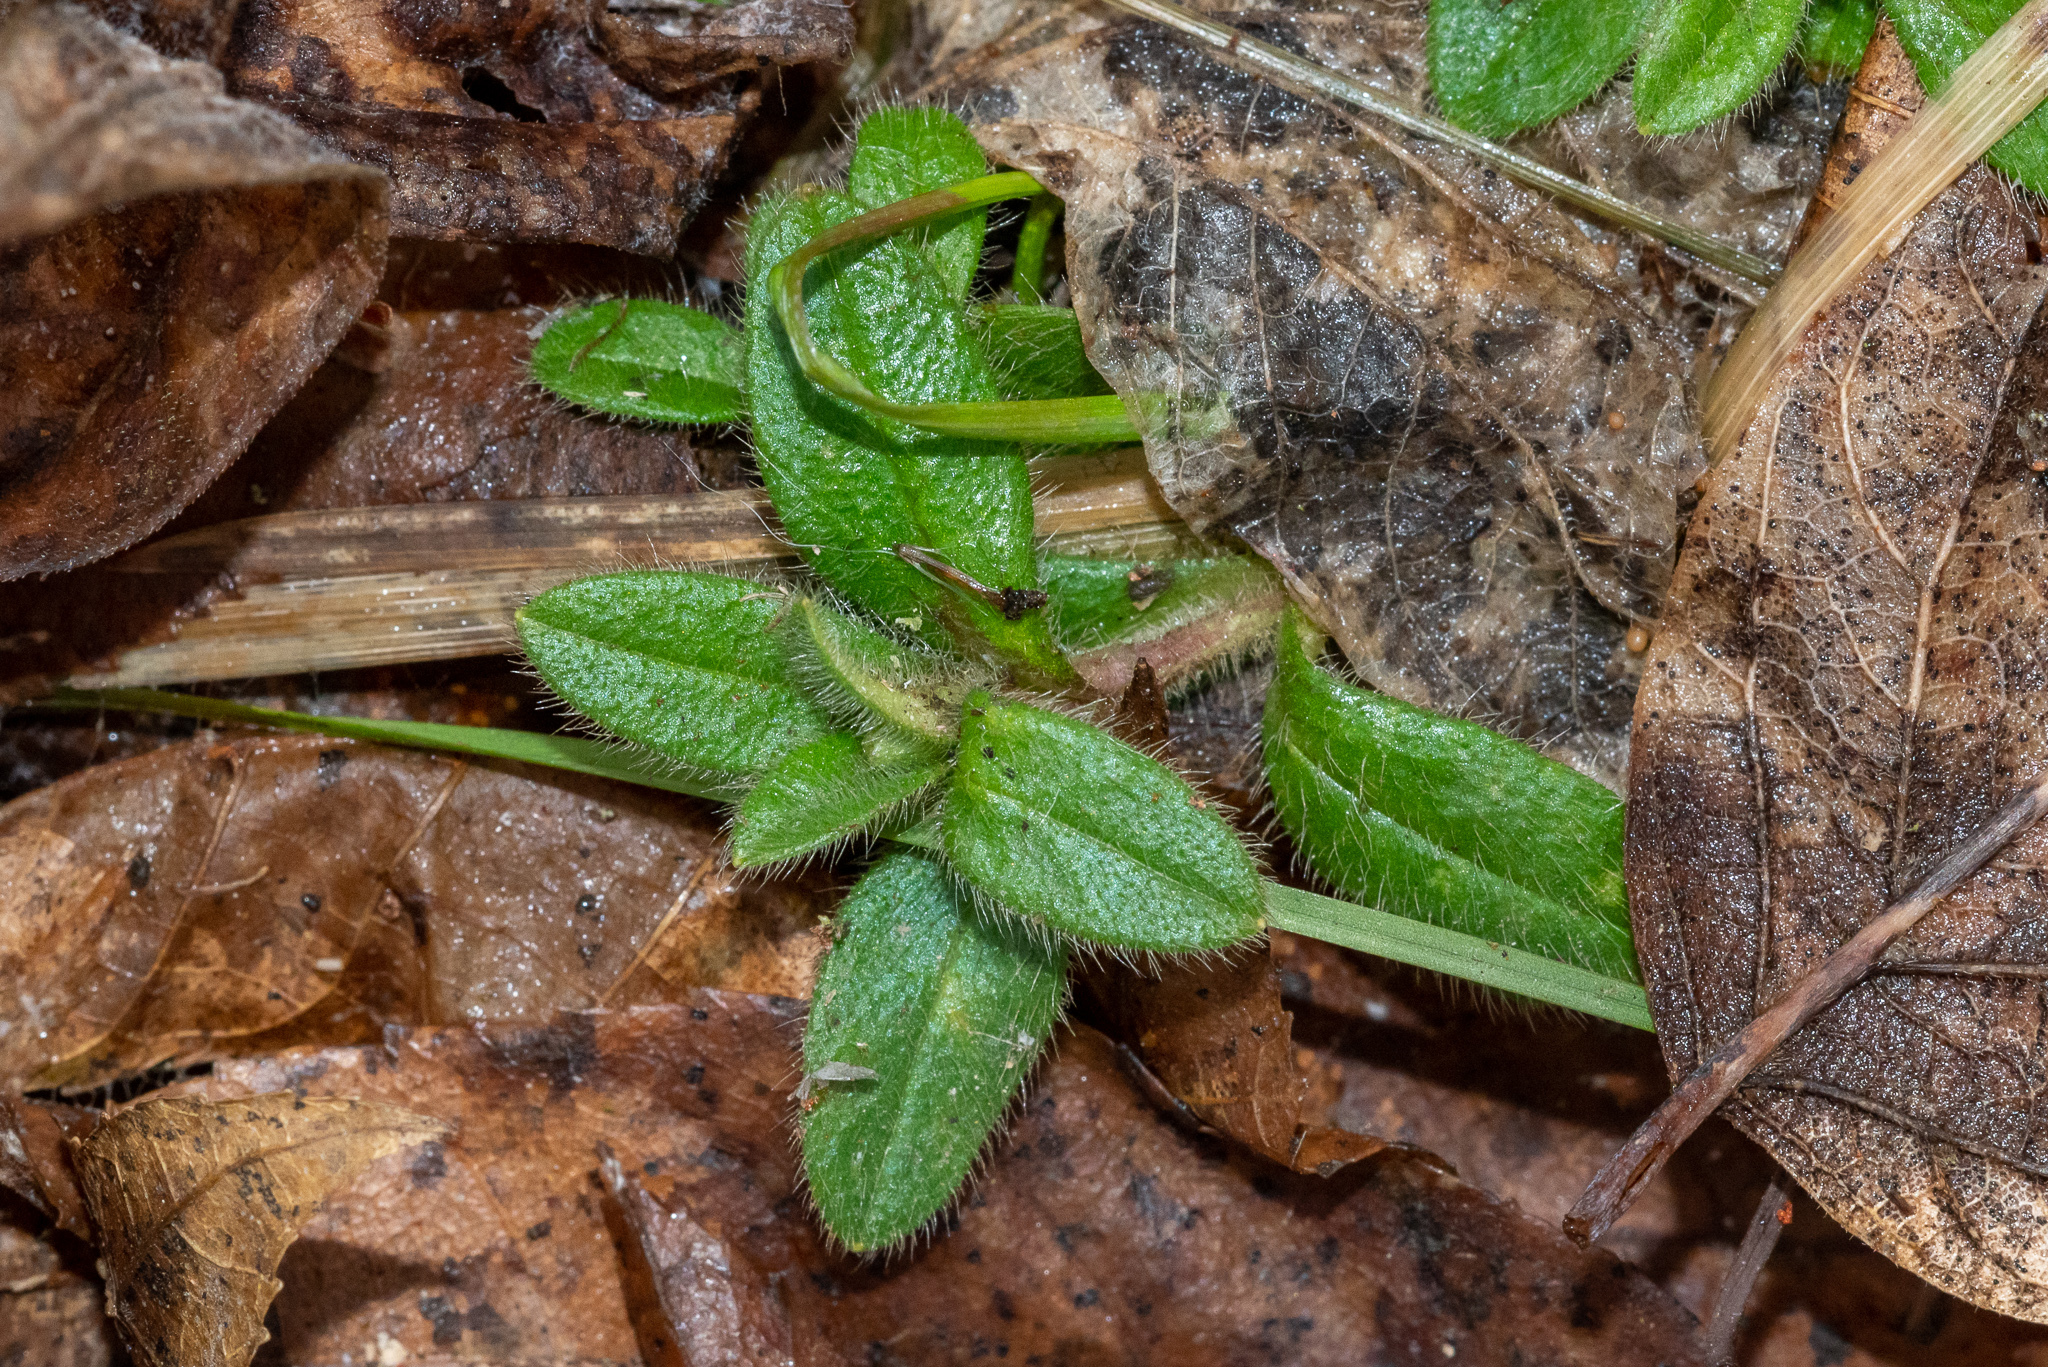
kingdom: Plantae
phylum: Tracheophyta
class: Magnoliopsida
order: Caryophyllales
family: Caryophyllaceae
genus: Cerastium
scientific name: Cerastium fontanum
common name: Common mouse-ear
